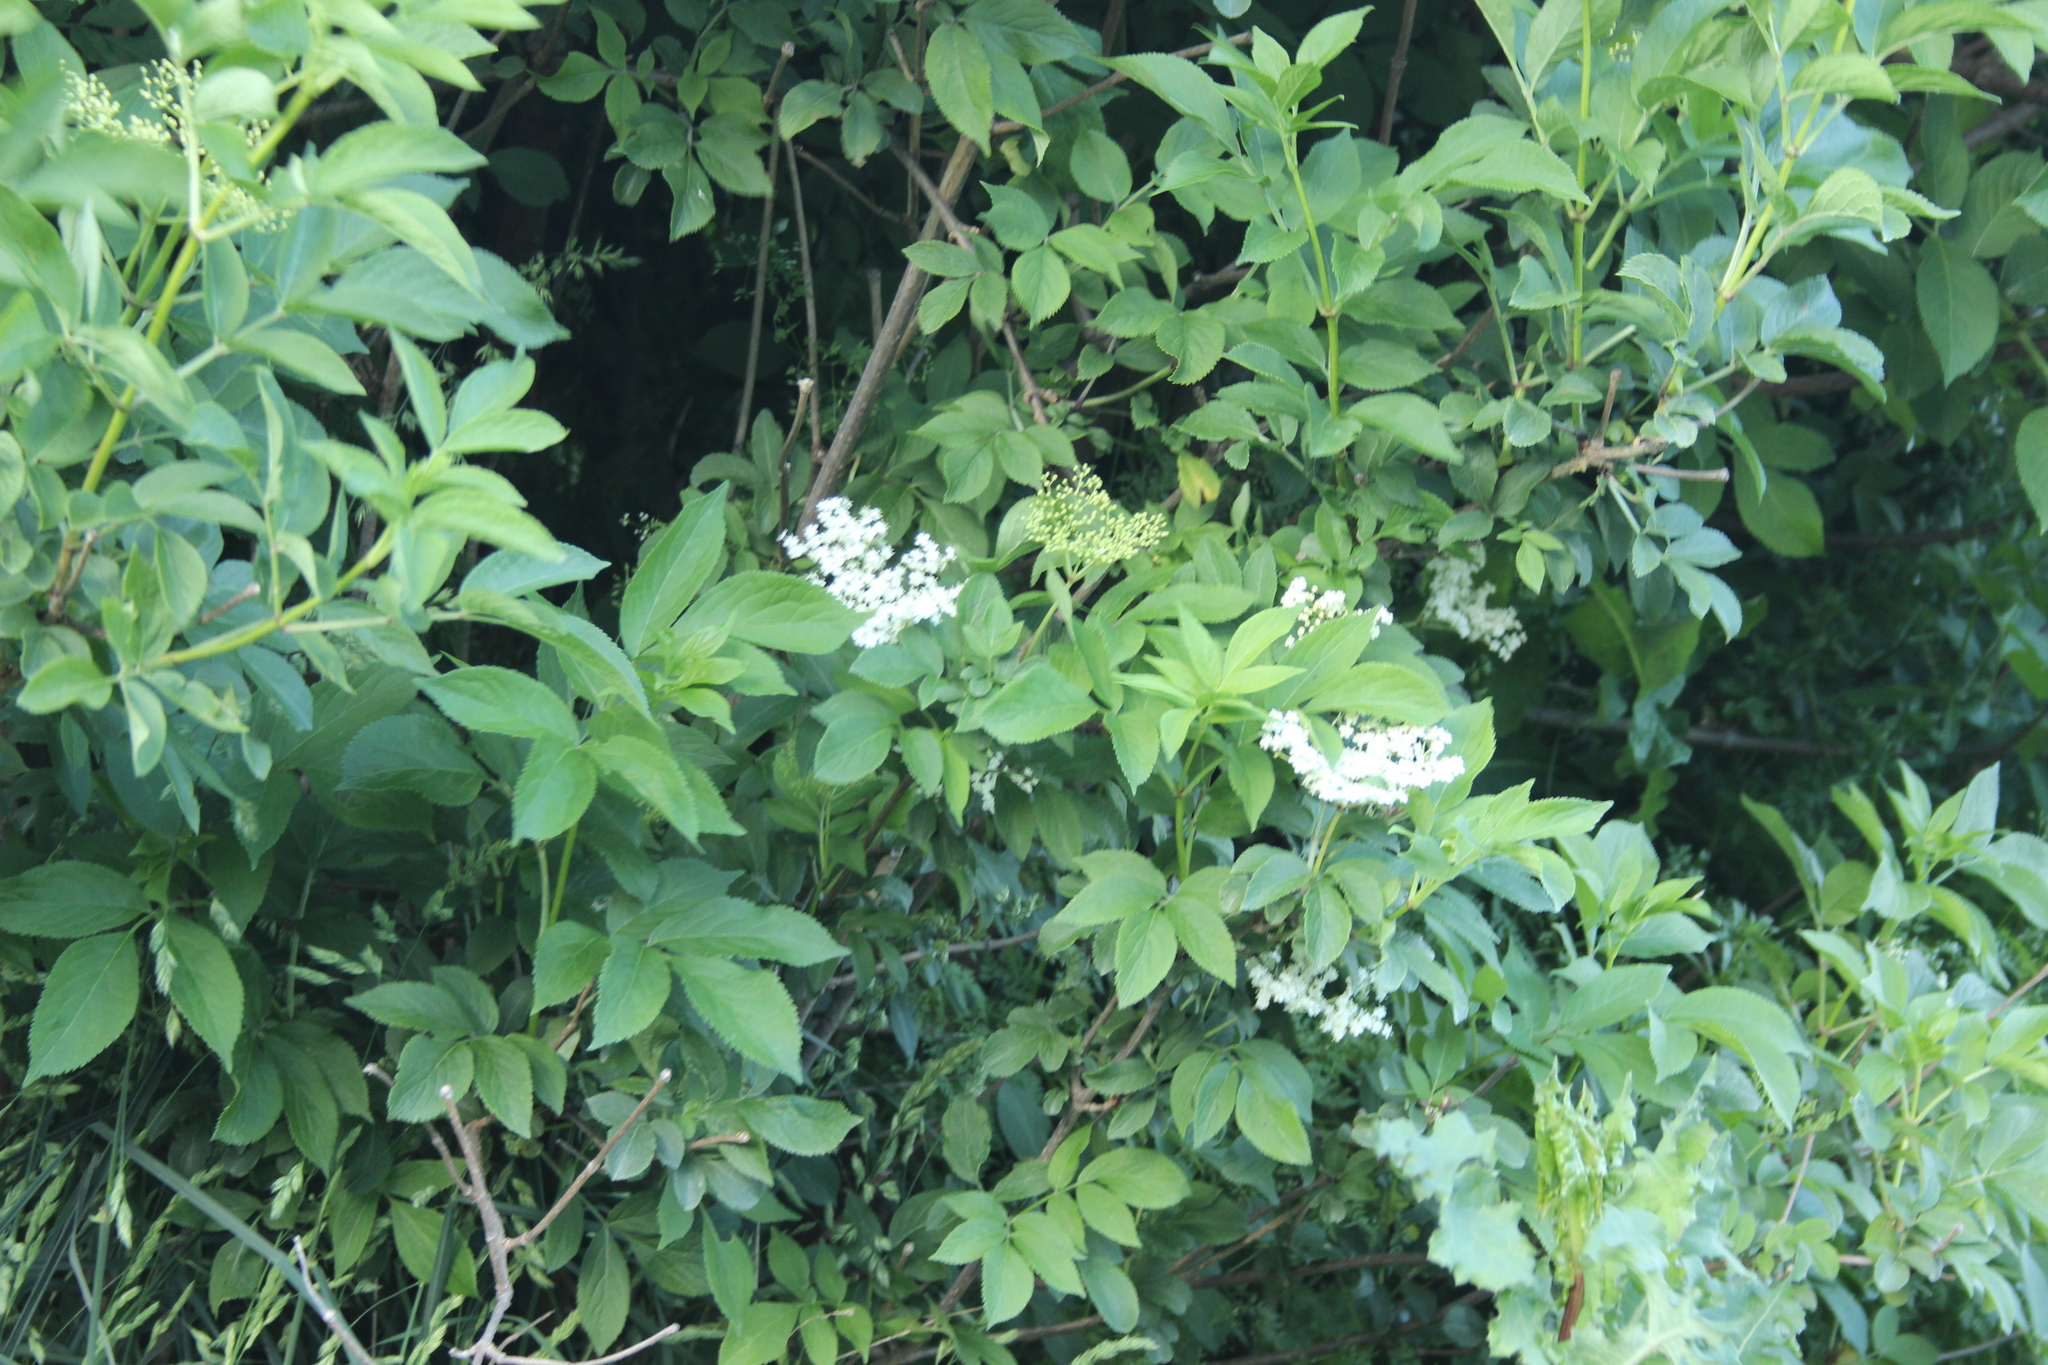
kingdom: Plantae
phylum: Tracheophyta
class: Magnoliopsida
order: Dipsacales
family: Viburnaceae
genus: Sambucus
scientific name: Sambucus nigra
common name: Elder
